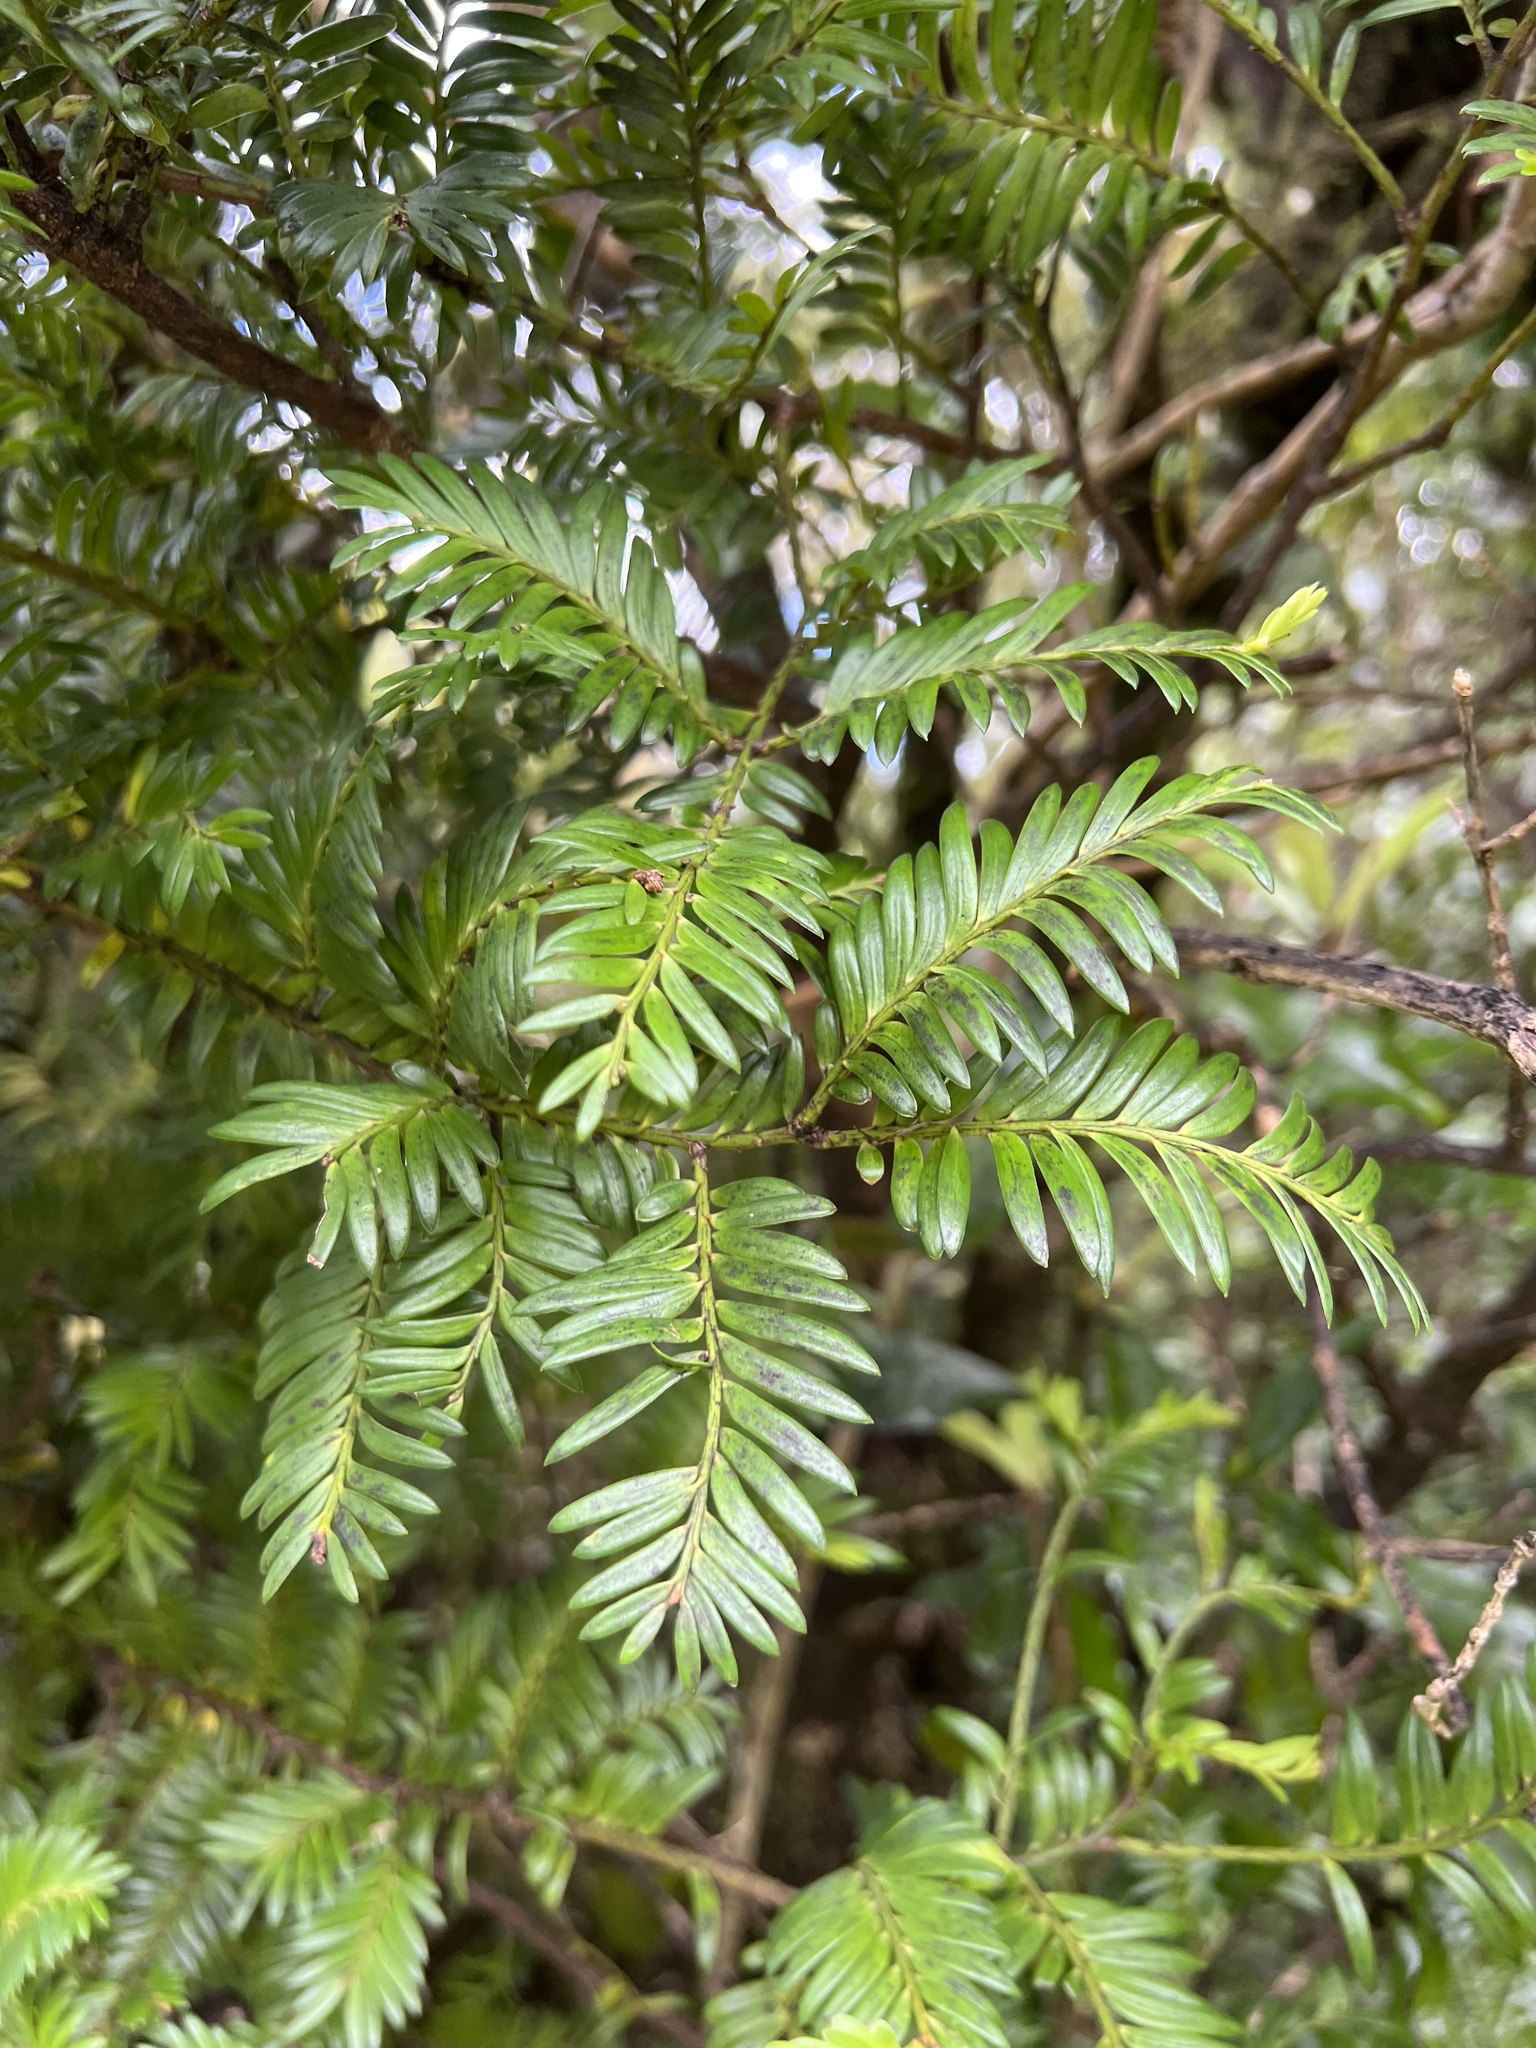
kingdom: Plantae
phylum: Tracheophyta
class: Pinopsida
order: Pinales
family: Podocarpaceae
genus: Prumnopitys
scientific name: Prumnopitys ferruginea
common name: Brown pine
